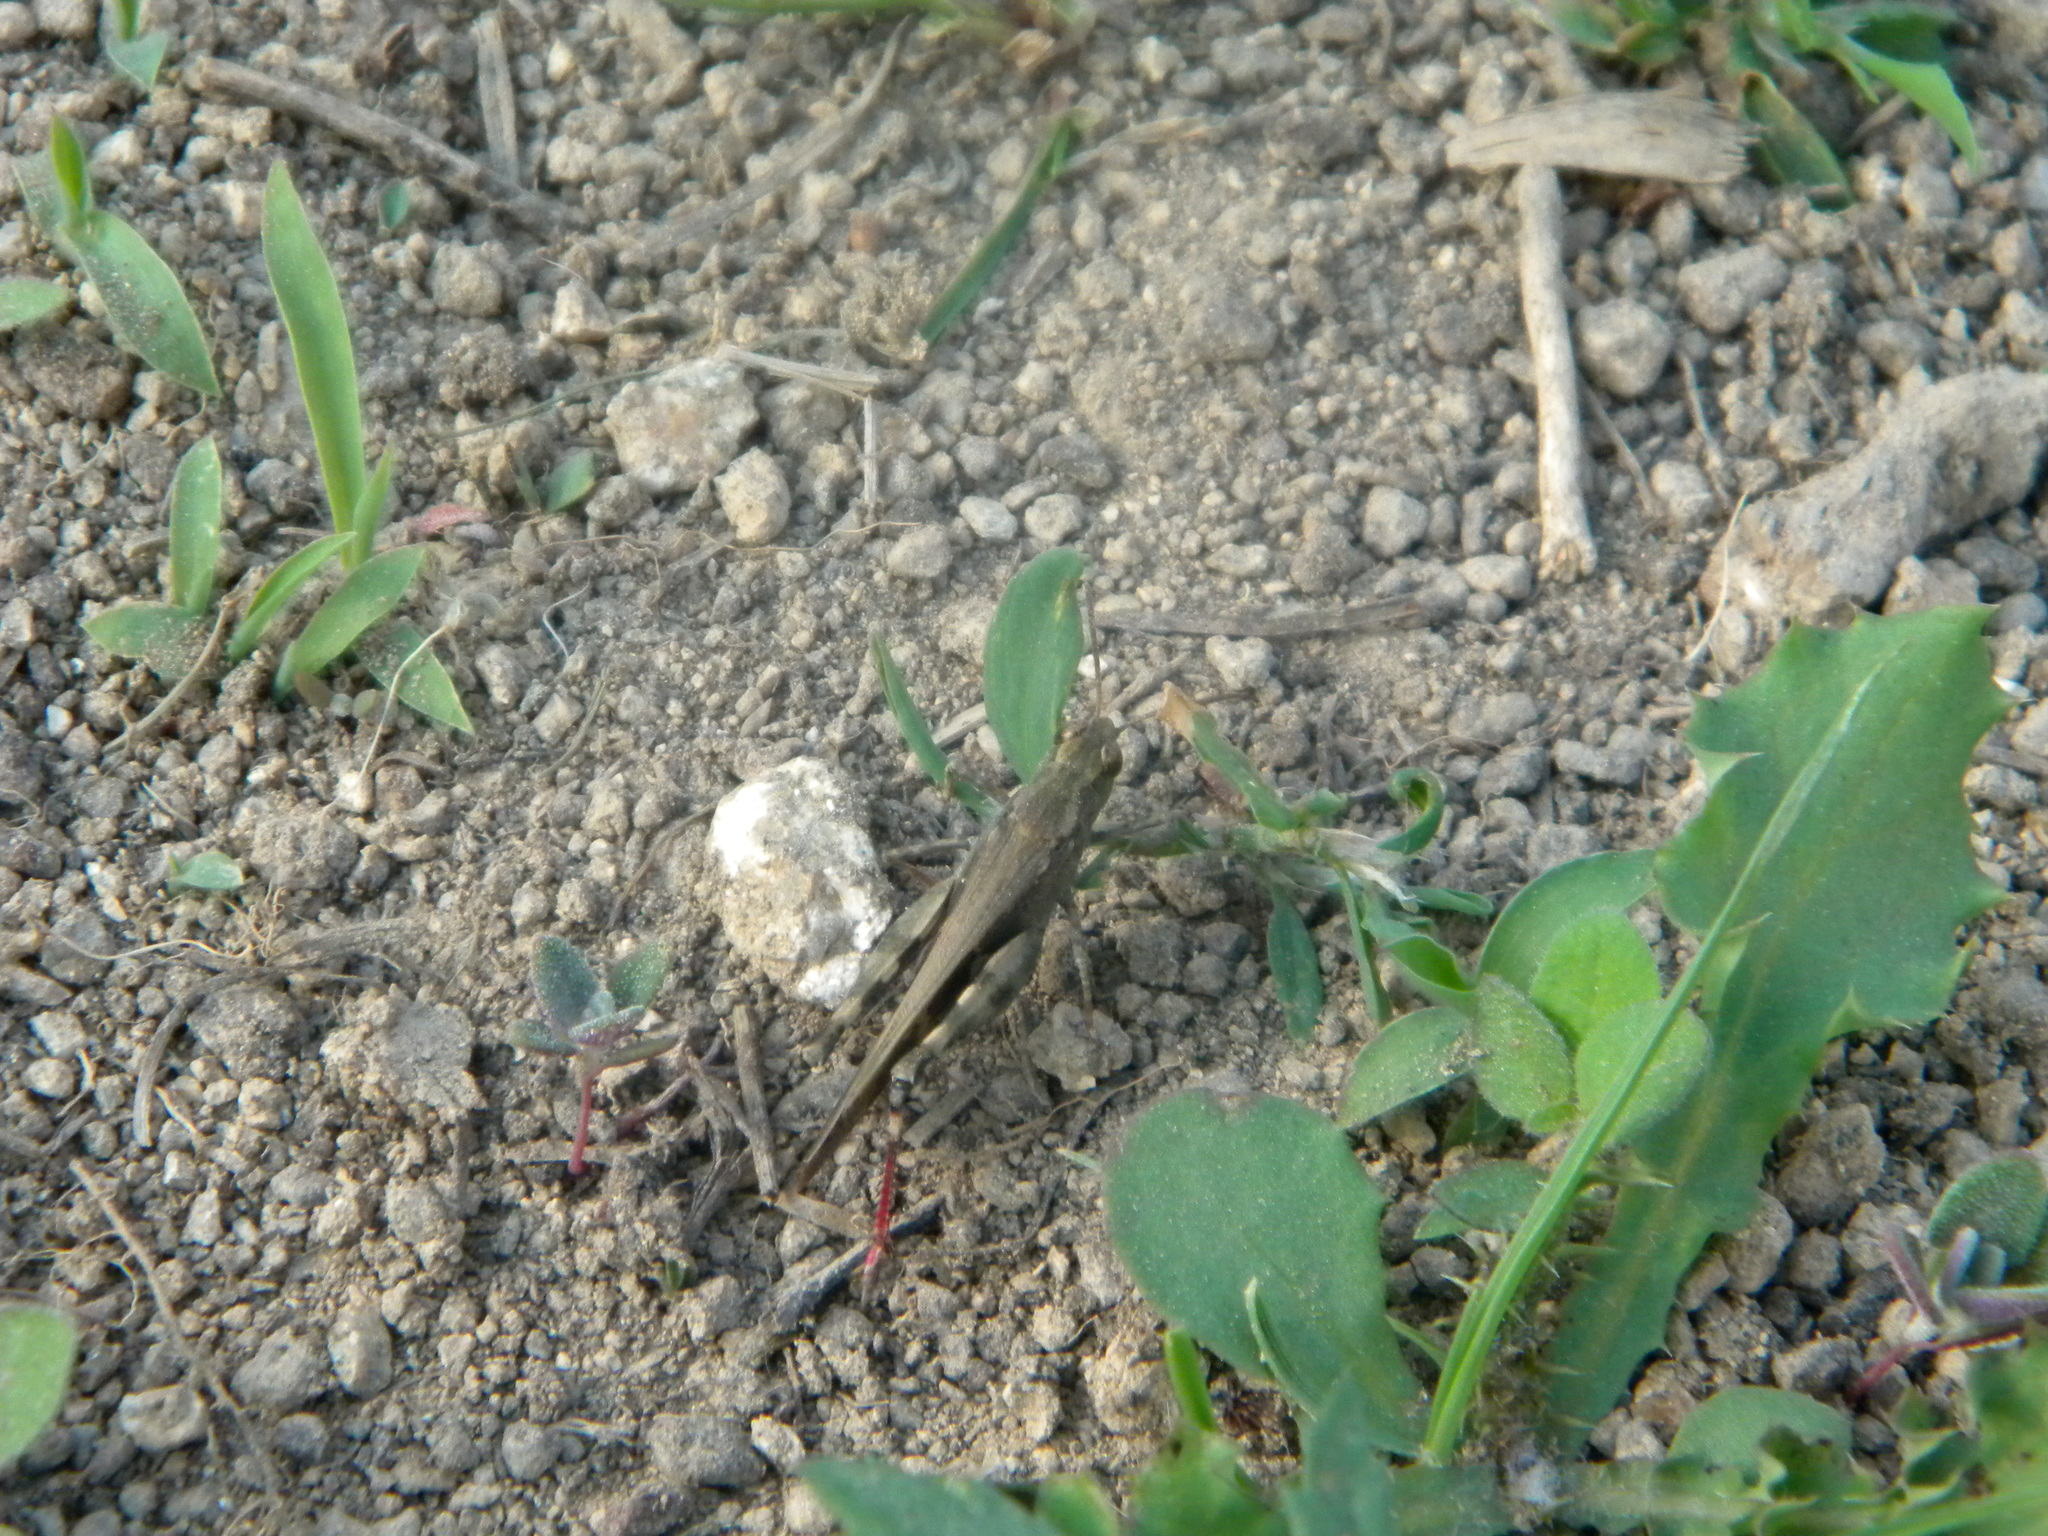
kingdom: Animalia
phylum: Arthropoda
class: Insecta
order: Orthoptera
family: Acrididae
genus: Aiolopus
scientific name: Aiolopus strepens
